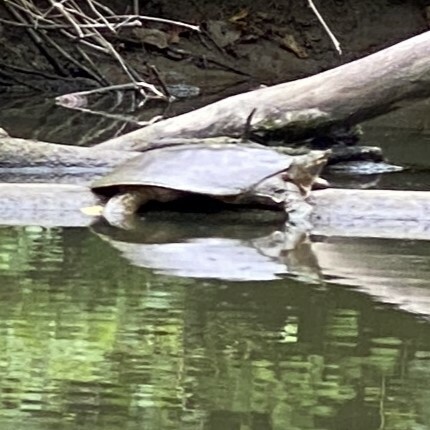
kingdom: Animalia
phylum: Chordata
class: Testudines
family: Trionychidae
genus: Apalone
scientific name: Apalone spinifera
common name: Spiny softshell turtle
